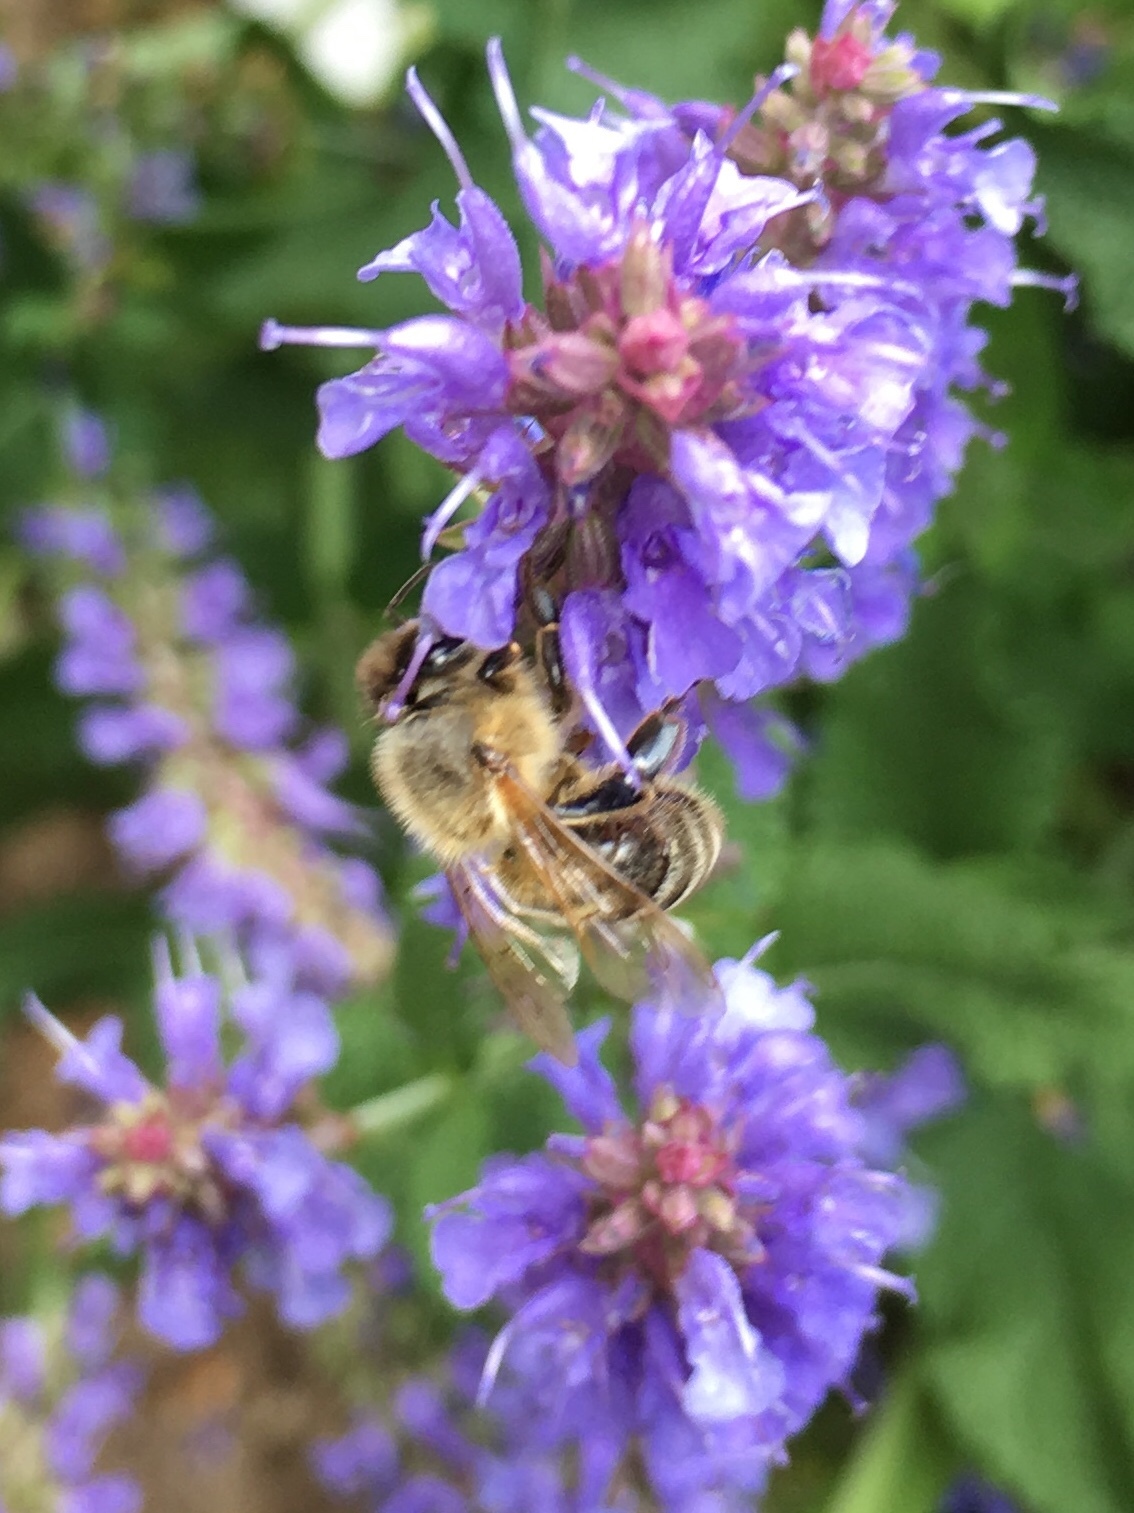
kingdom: Animalia
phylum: Arthropoda
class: Insecta
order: Hymenoptera
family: Apidae
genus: Apis
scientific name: Apis mellifera
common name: Honey bee
